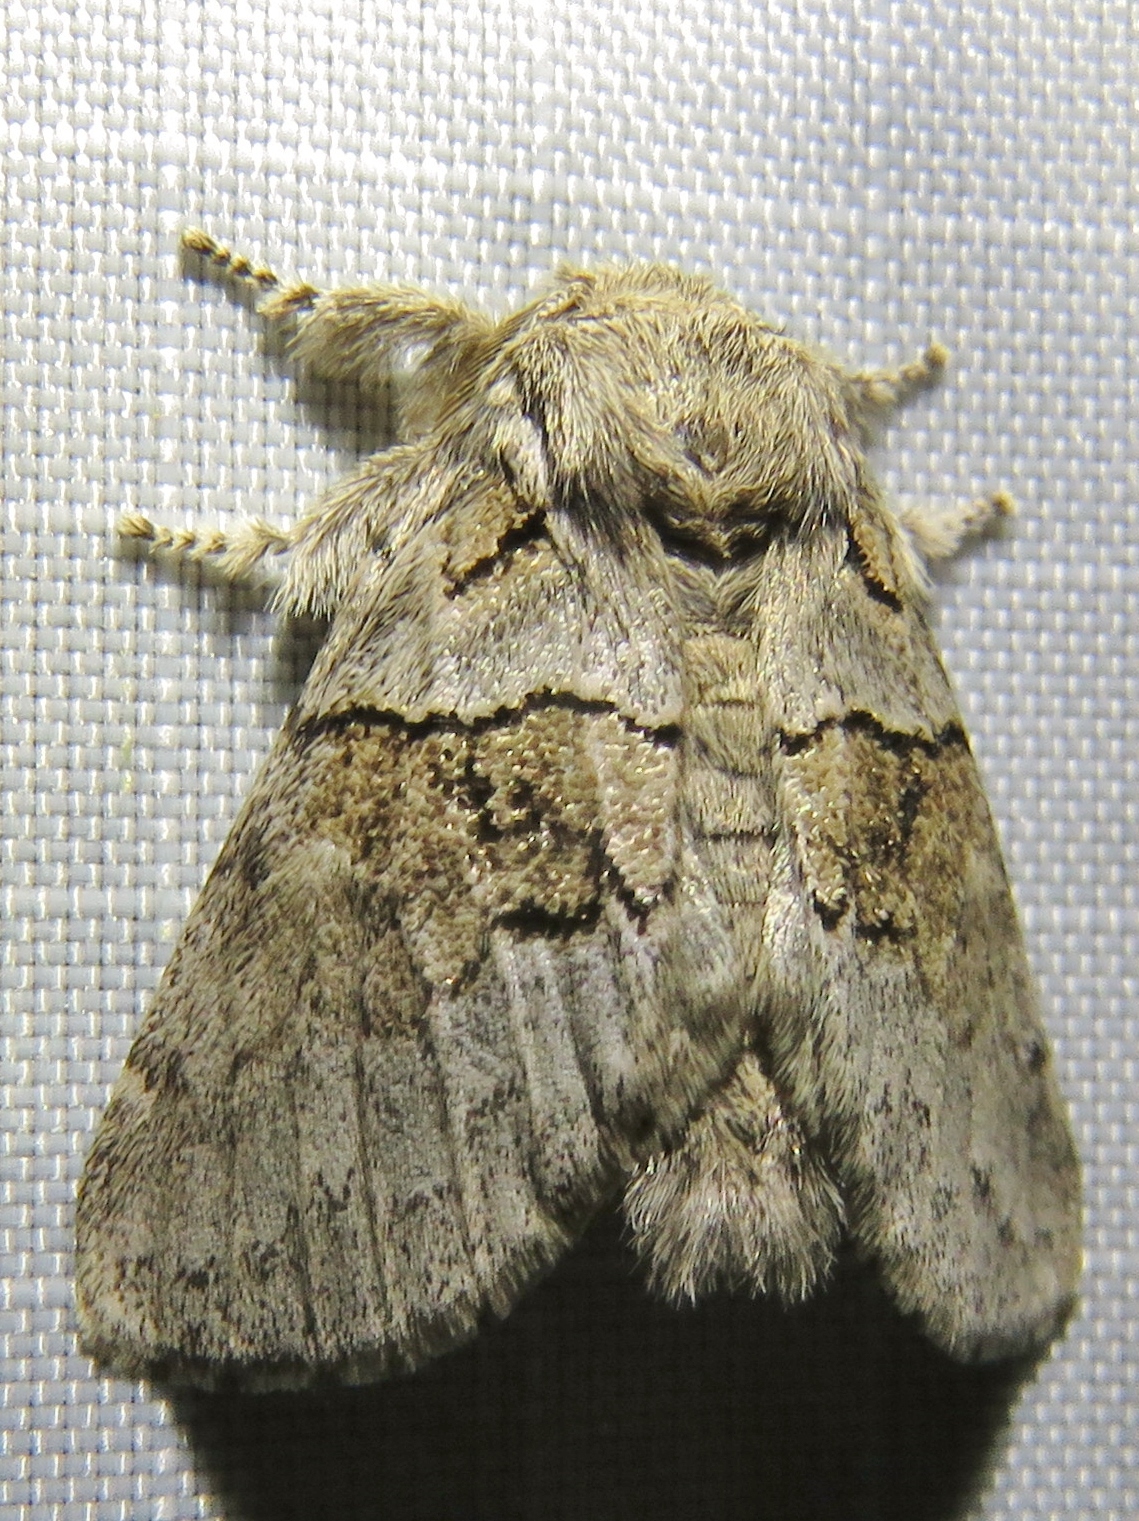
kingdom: Animalia
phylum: Arthropoda
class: Insecta
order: Lepidoptera
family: Notodontidae
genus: Gluphisia
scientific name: Gluphisia septentrionis
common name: Common gluphisia
